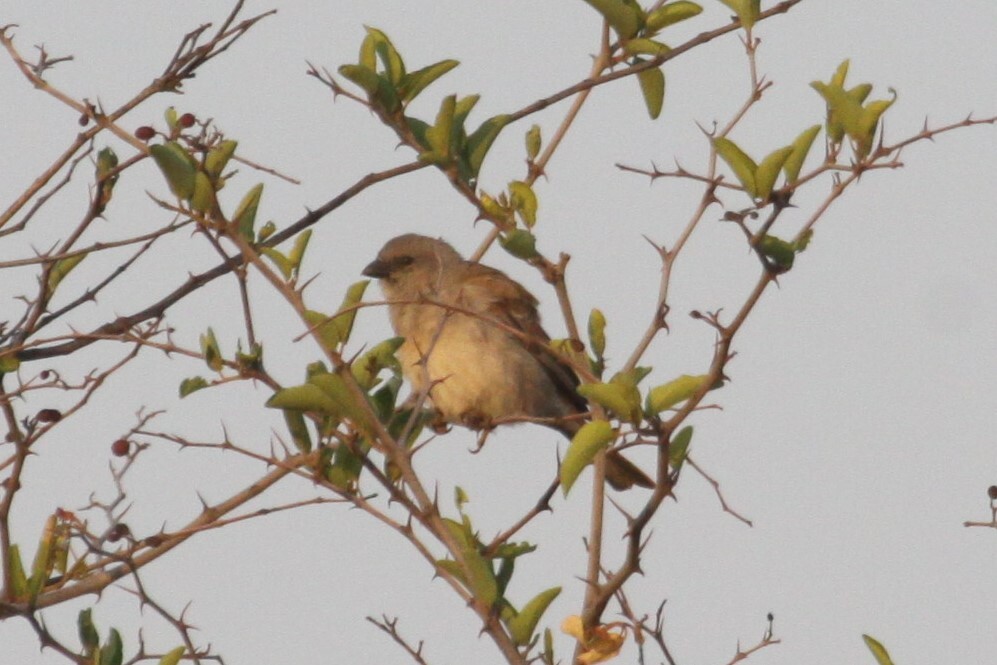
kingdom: Animalia
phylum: Chordata
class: Aves
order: Passeriformes
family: Passeridae
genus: Passer
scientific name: Passer diffusus
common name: Southern grey-headed sparrow
